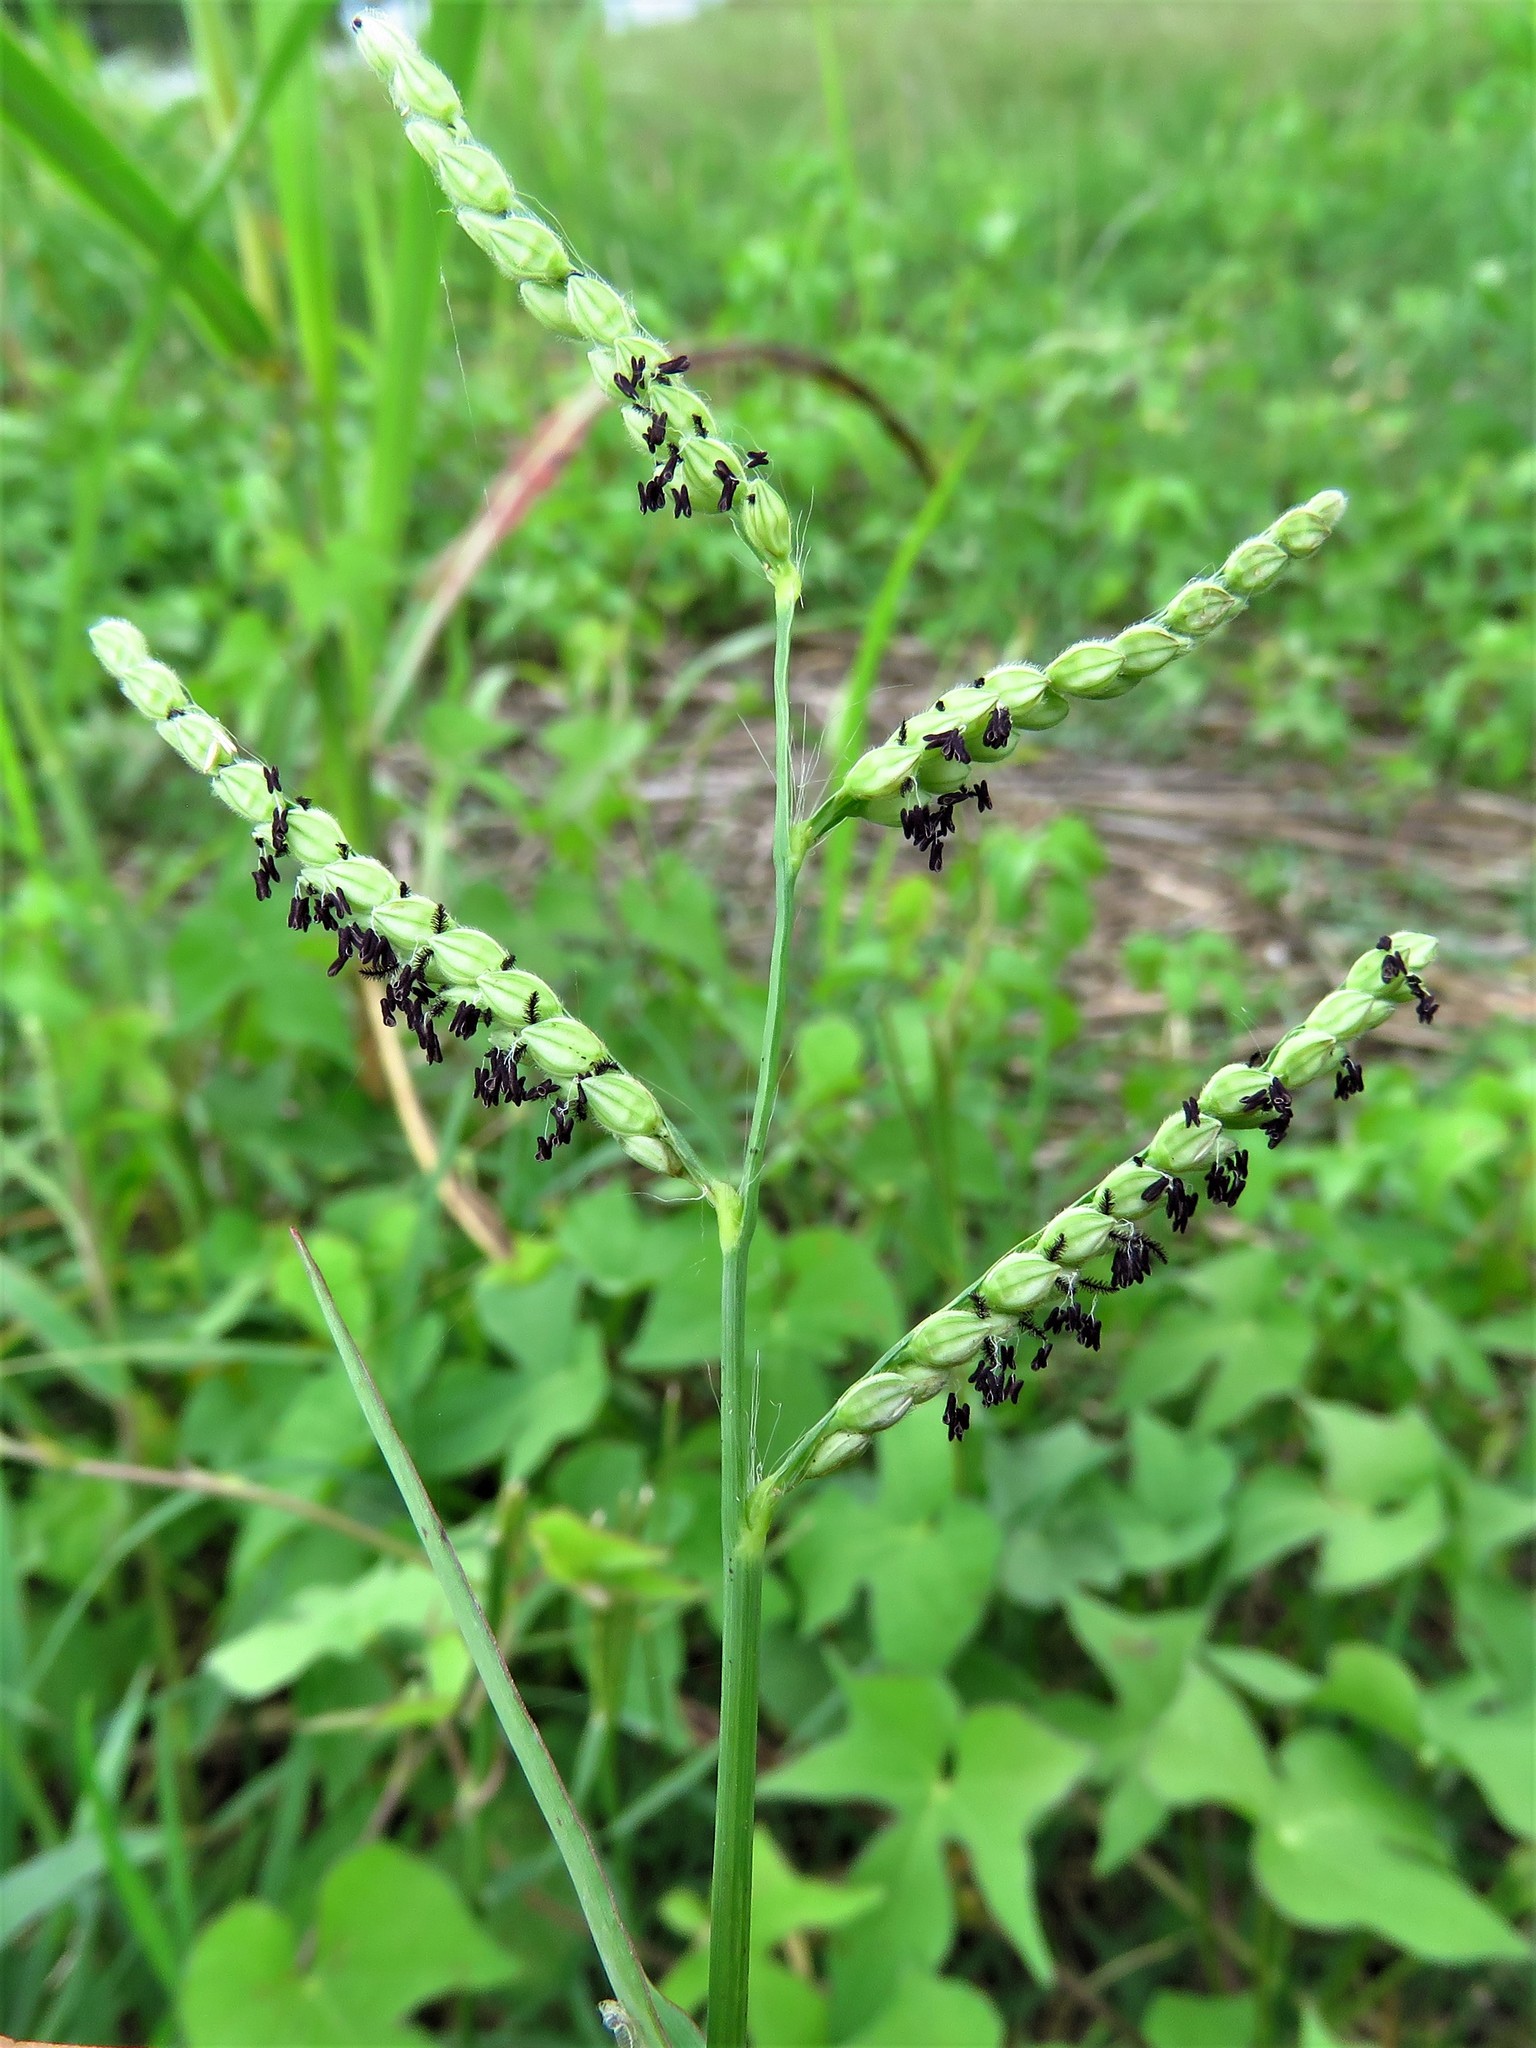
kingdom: Plantae
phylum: Tracheophyta
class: Liliopsida
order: Poales
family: Poaceae
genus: Paspalum
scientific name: Paspalum dilatatum
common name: Dallisgrass
